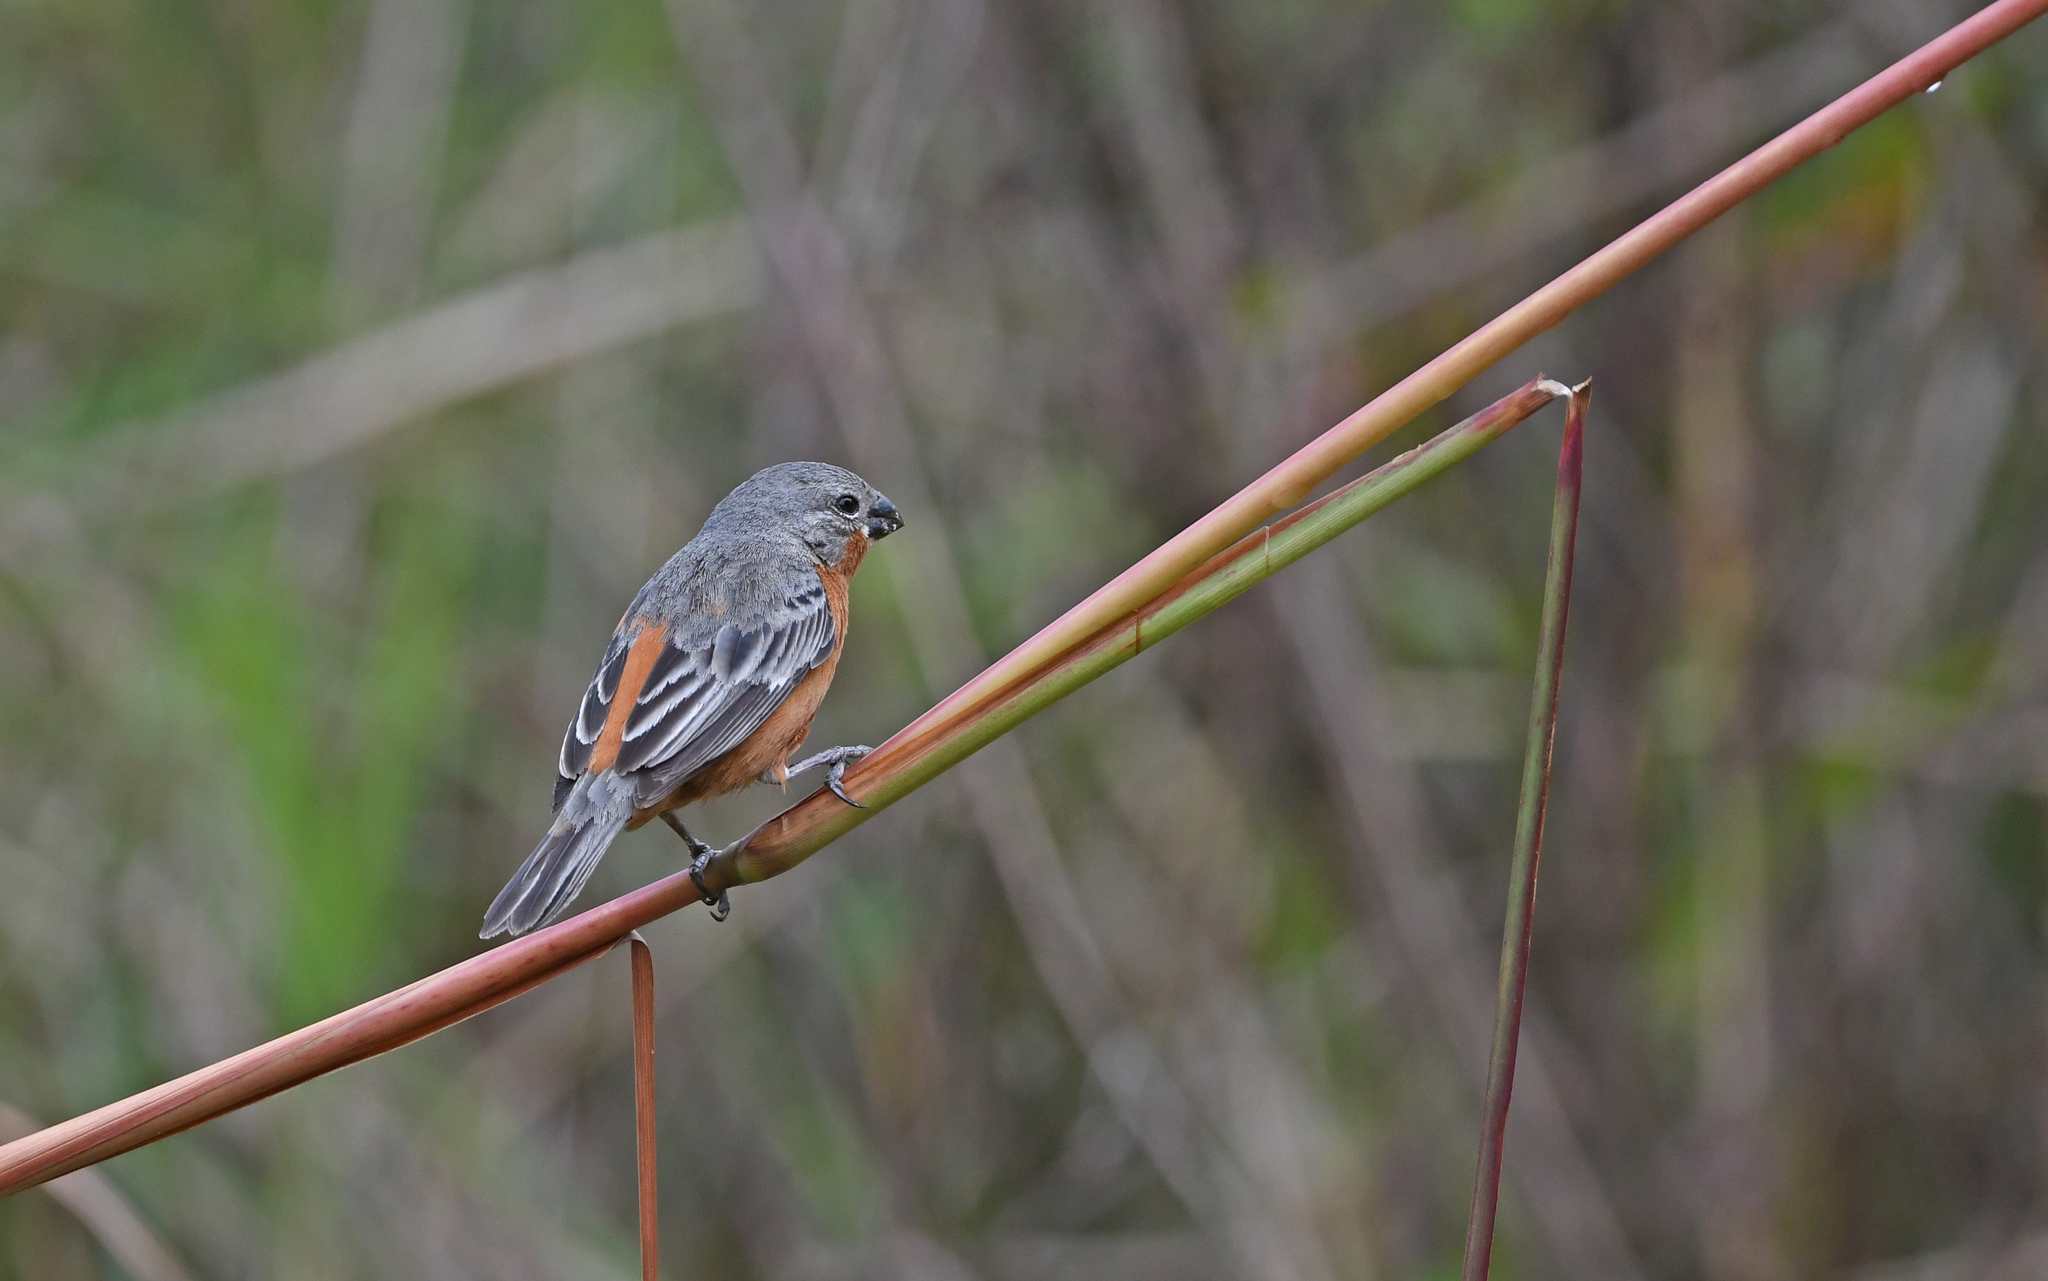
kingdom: Animalia
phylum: Chordata
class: Aves
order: Passeriformes
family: Thraupidae
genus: Sporophila
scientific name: Sporophila minuta
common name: Ruddy-breasted seedeater
